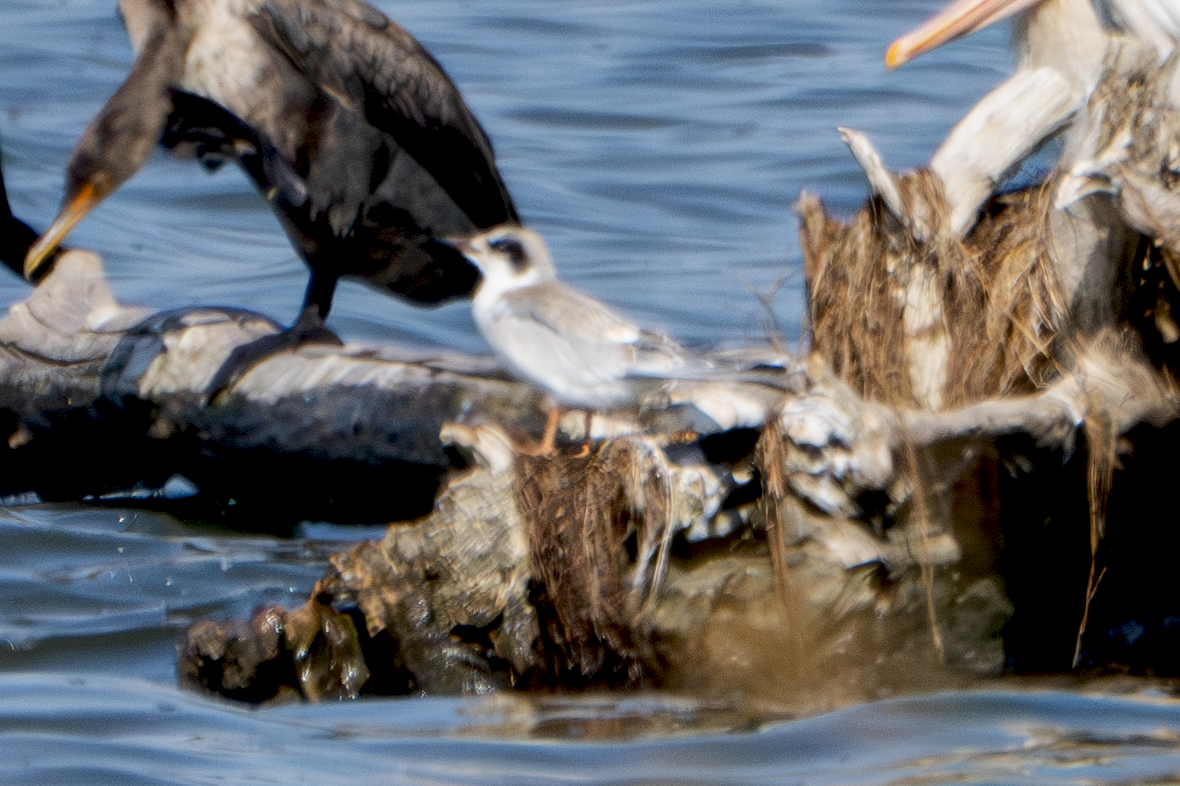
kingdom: Animalia
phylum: Chordata
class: Aves
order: Charadriiformes
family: Laridae
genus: Sterna
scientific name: Sterna forsteri
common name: Forster's tern
